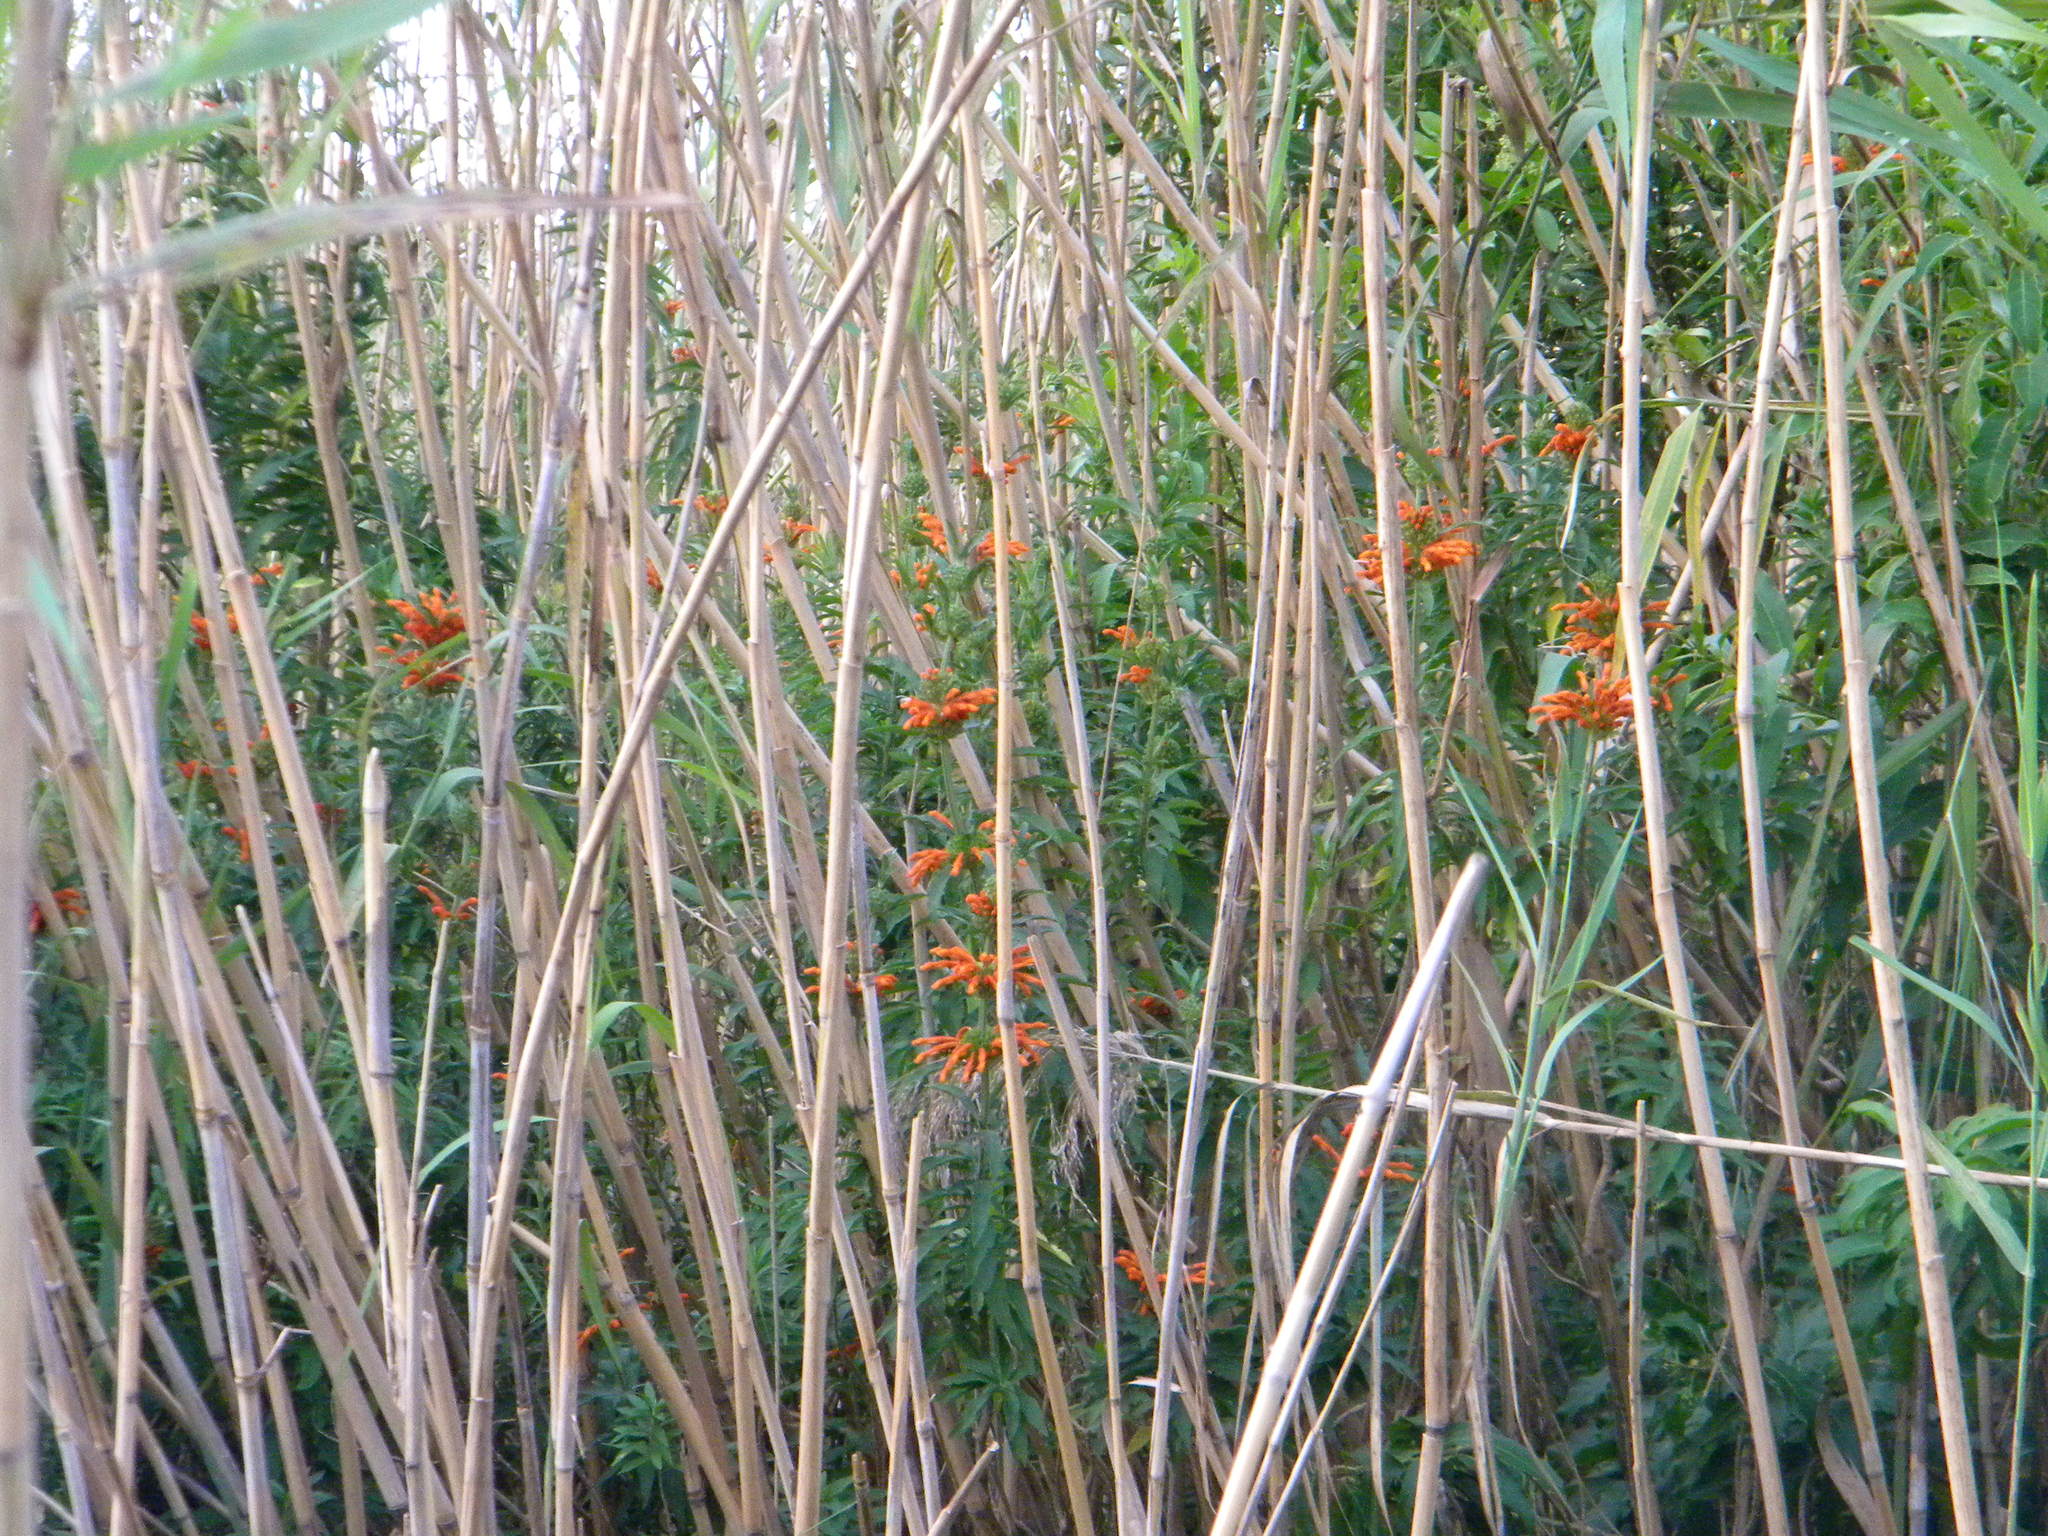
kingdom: Plantae
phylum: Tracheophyta
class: Magnoliopsida
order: Lamiales
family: Lamiaceae
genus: Leonotis
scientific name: Leonotis leonurus
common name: Lion's ear
